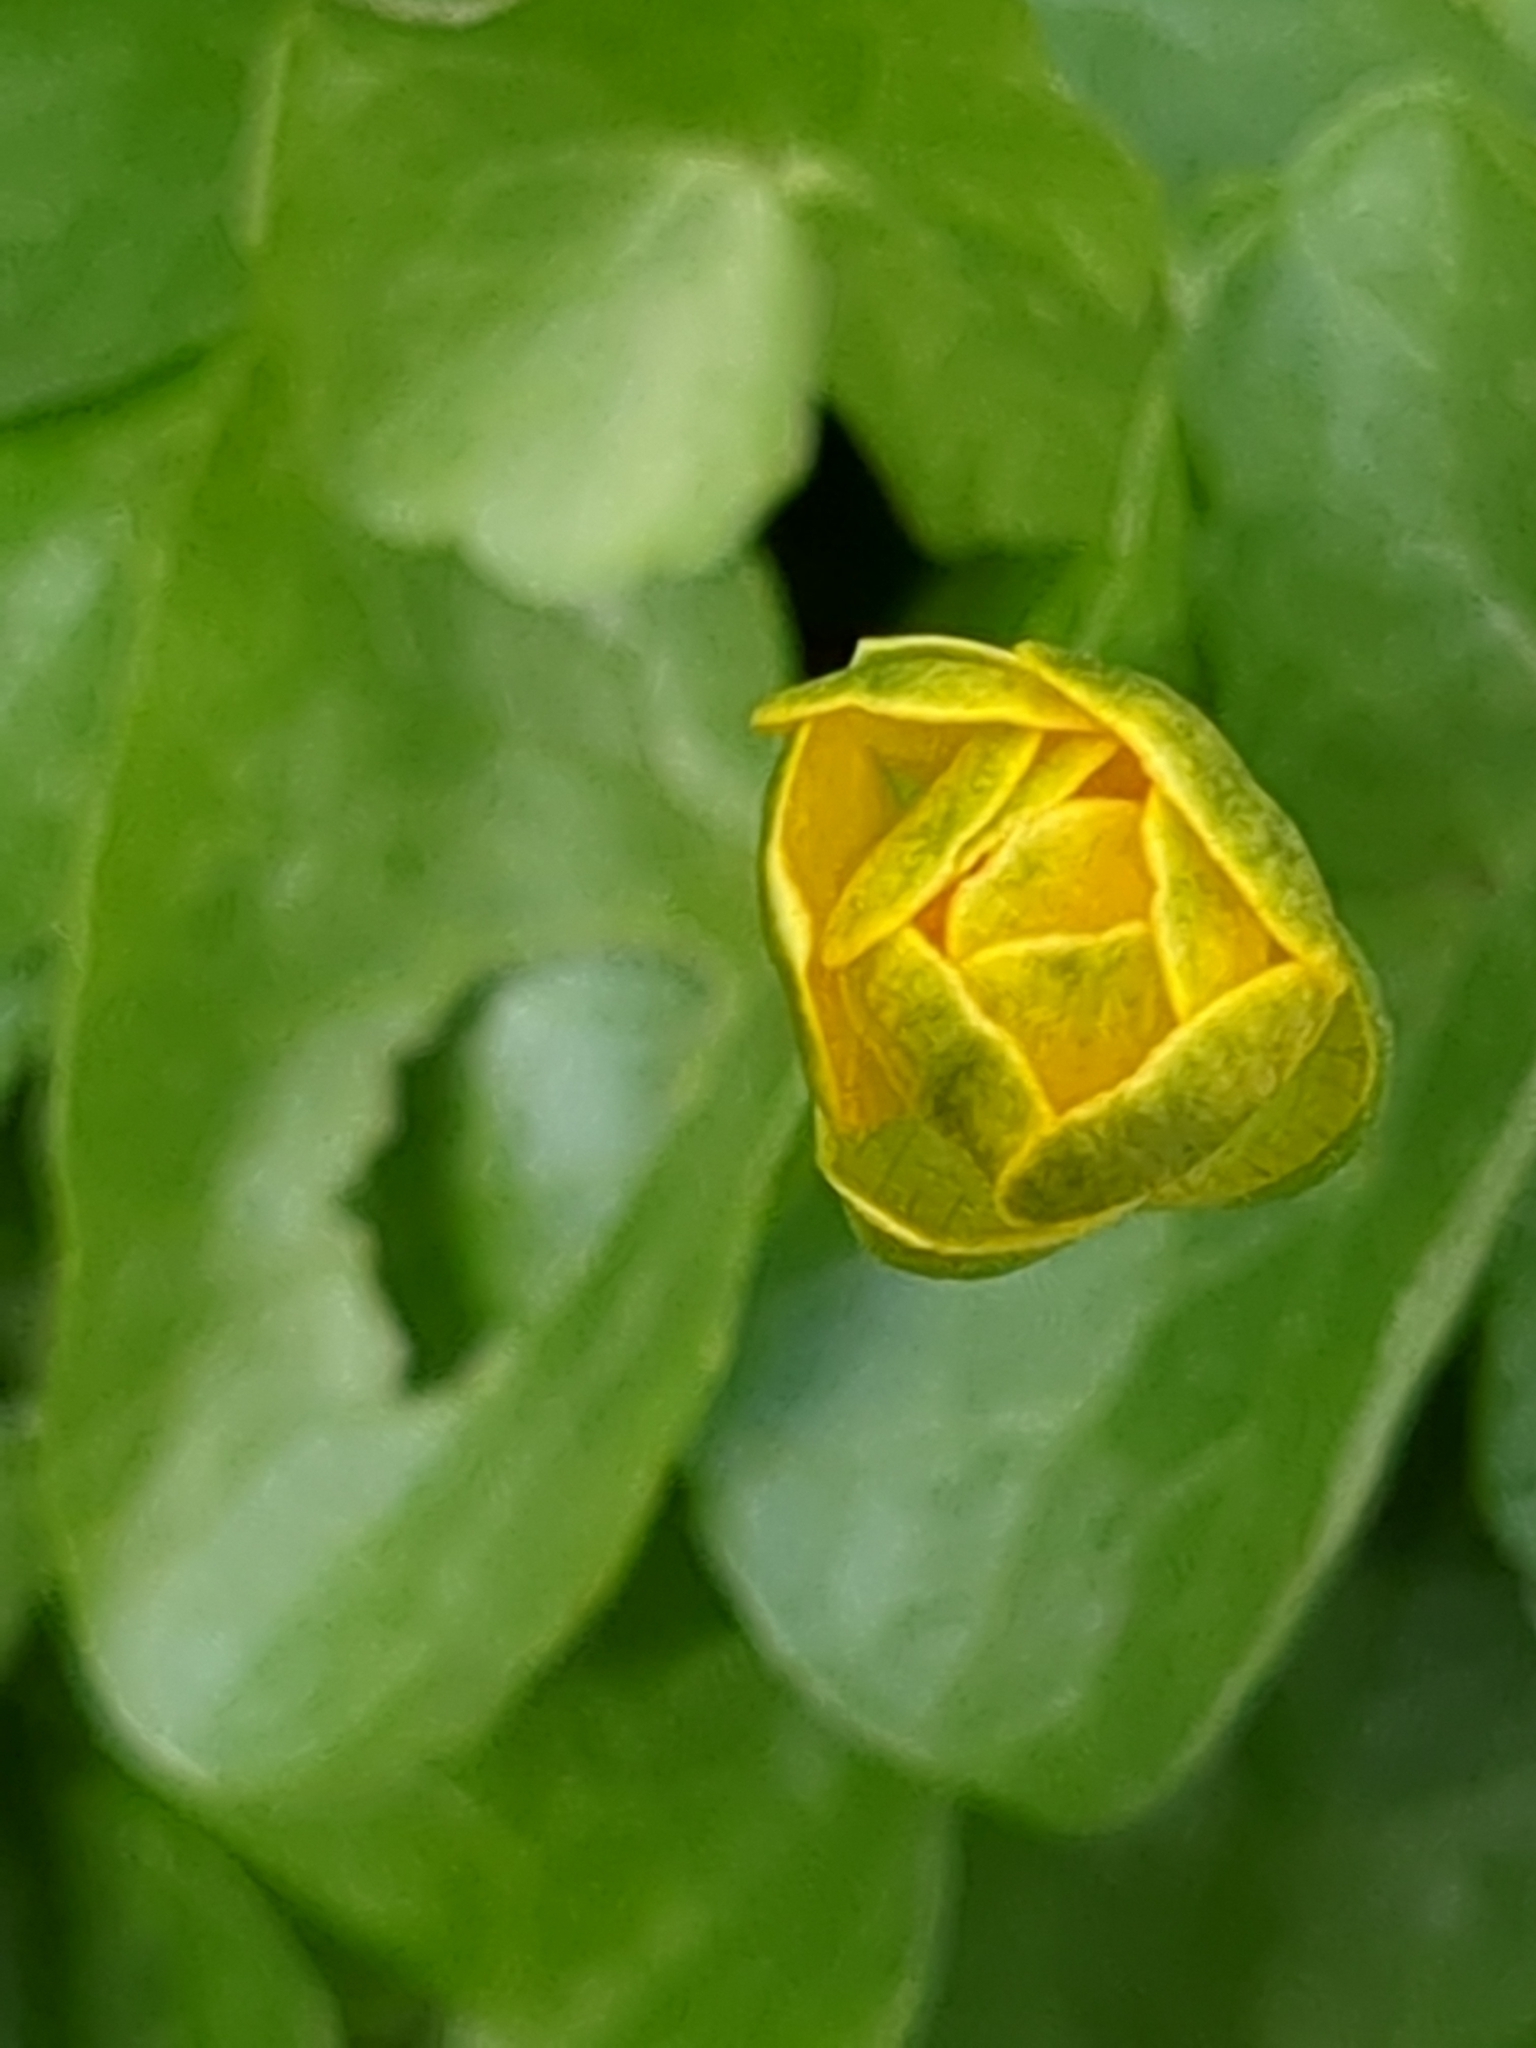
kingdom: Plantae
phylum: Tracheophyta
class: Magnoliopsida
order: Ranunculales
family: Ranunculaceae
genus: Ficaria
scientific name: Ficaria verna
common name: Lesser celandine
